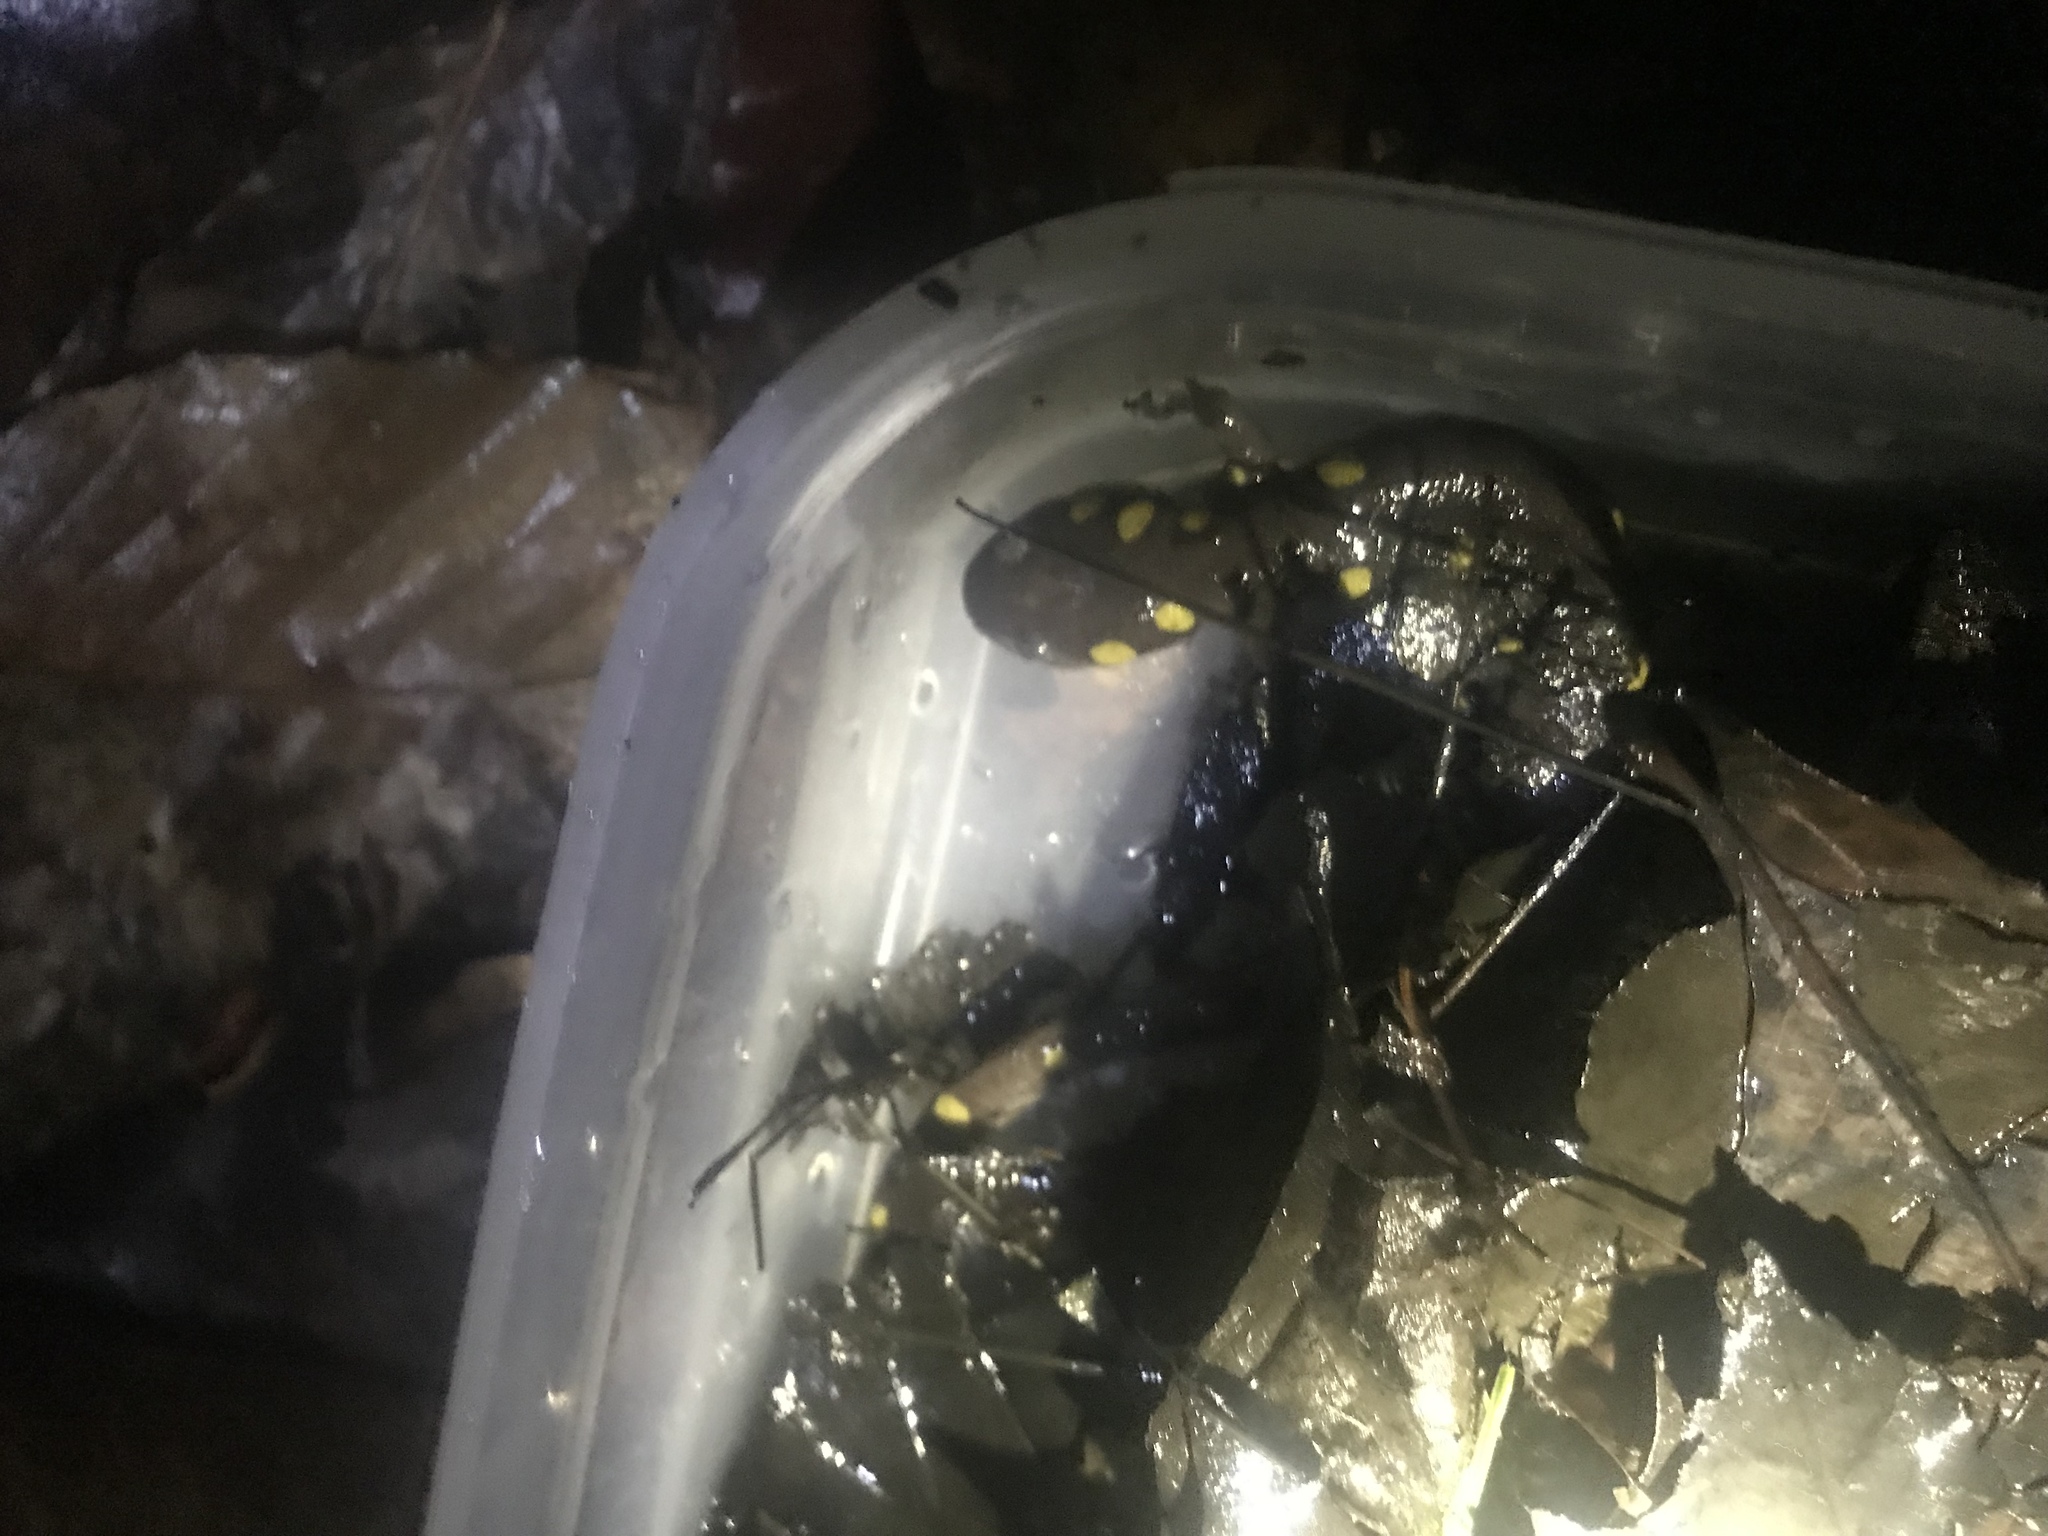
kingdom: Animalia
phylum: Chordata
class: Amphibia
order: Caudata
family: Ambystomatidae
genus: Ambystoma
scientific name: Ambystoma maculatum
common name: Spotted salamander
